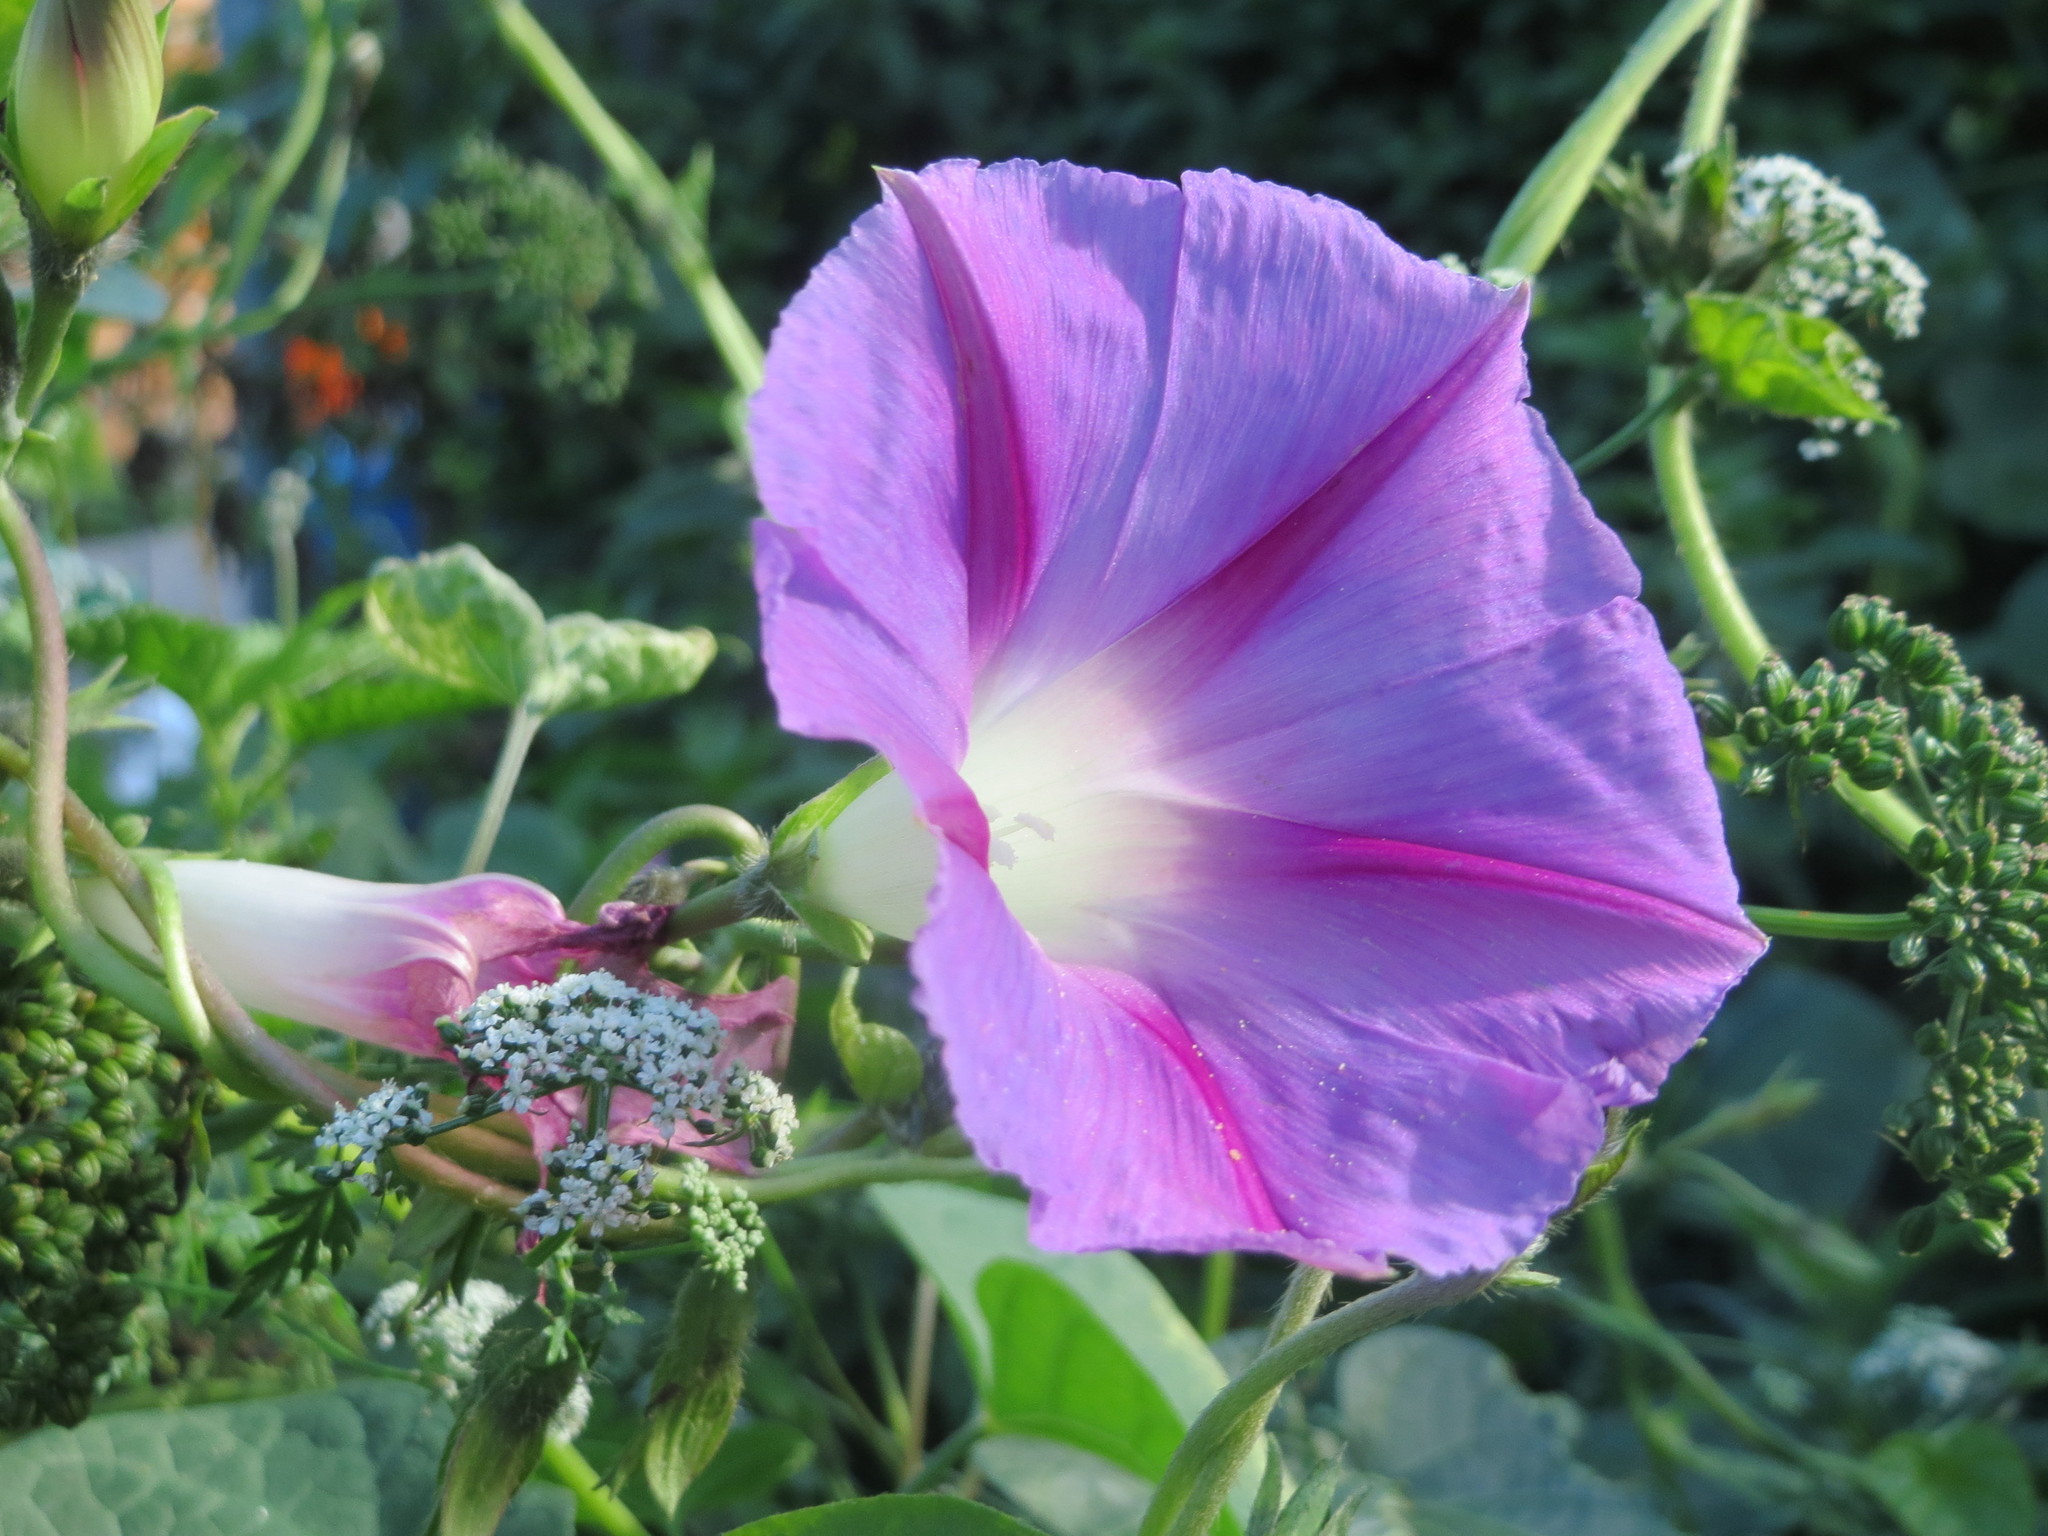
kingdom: Plantae
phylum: Tracheophyta
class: Magnoliopsida
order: Solanales
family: Convolvulaceae
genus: Ipomoea
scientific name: Ipomoea purpurea
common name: Common morning-glory
